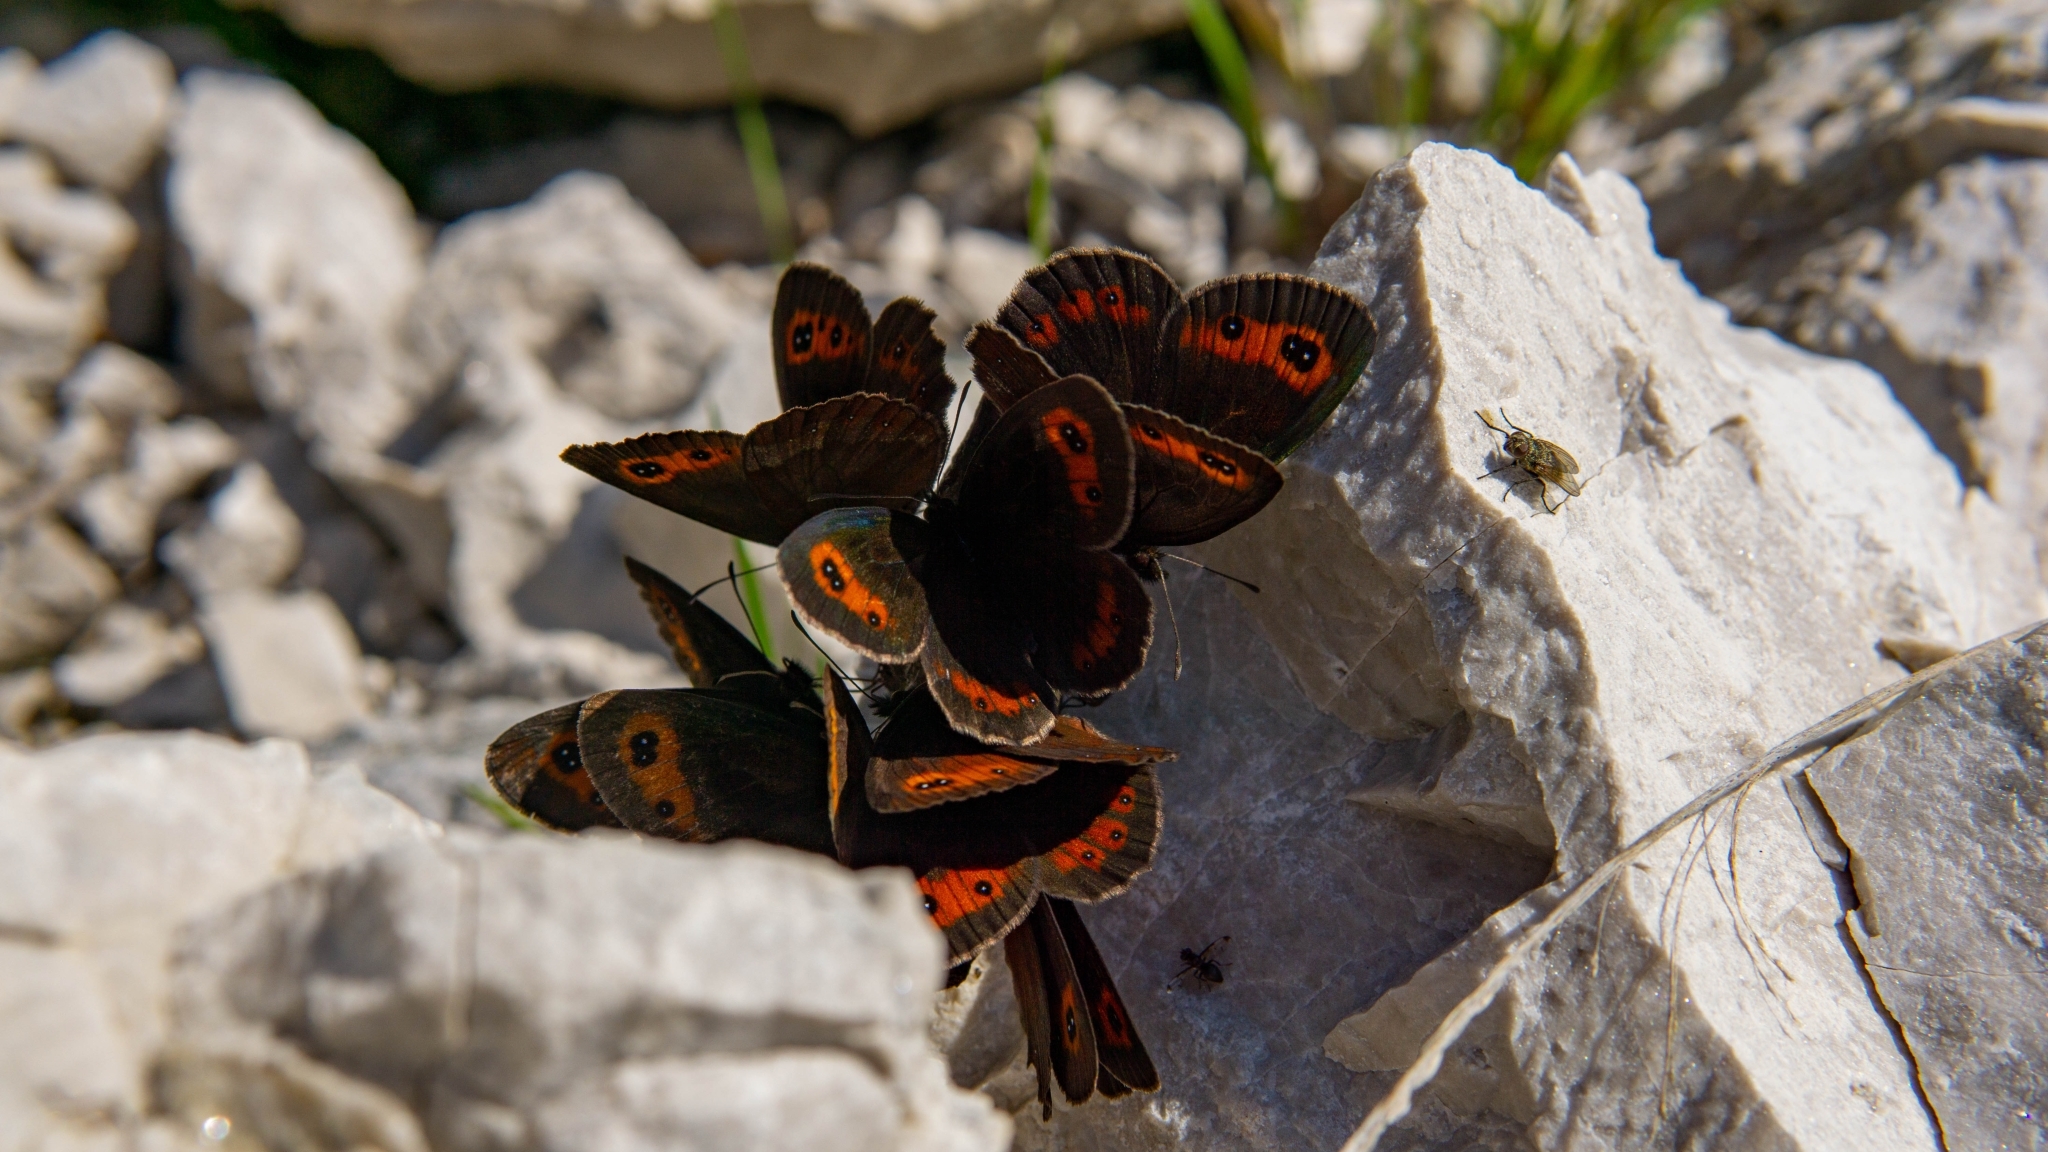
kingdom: Animalia
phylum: Arthropoda
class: Insecta
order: Lepidoptera
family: Nymphalidae
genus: Erebia
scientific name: Erebia aethiops
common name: Scotch argus
